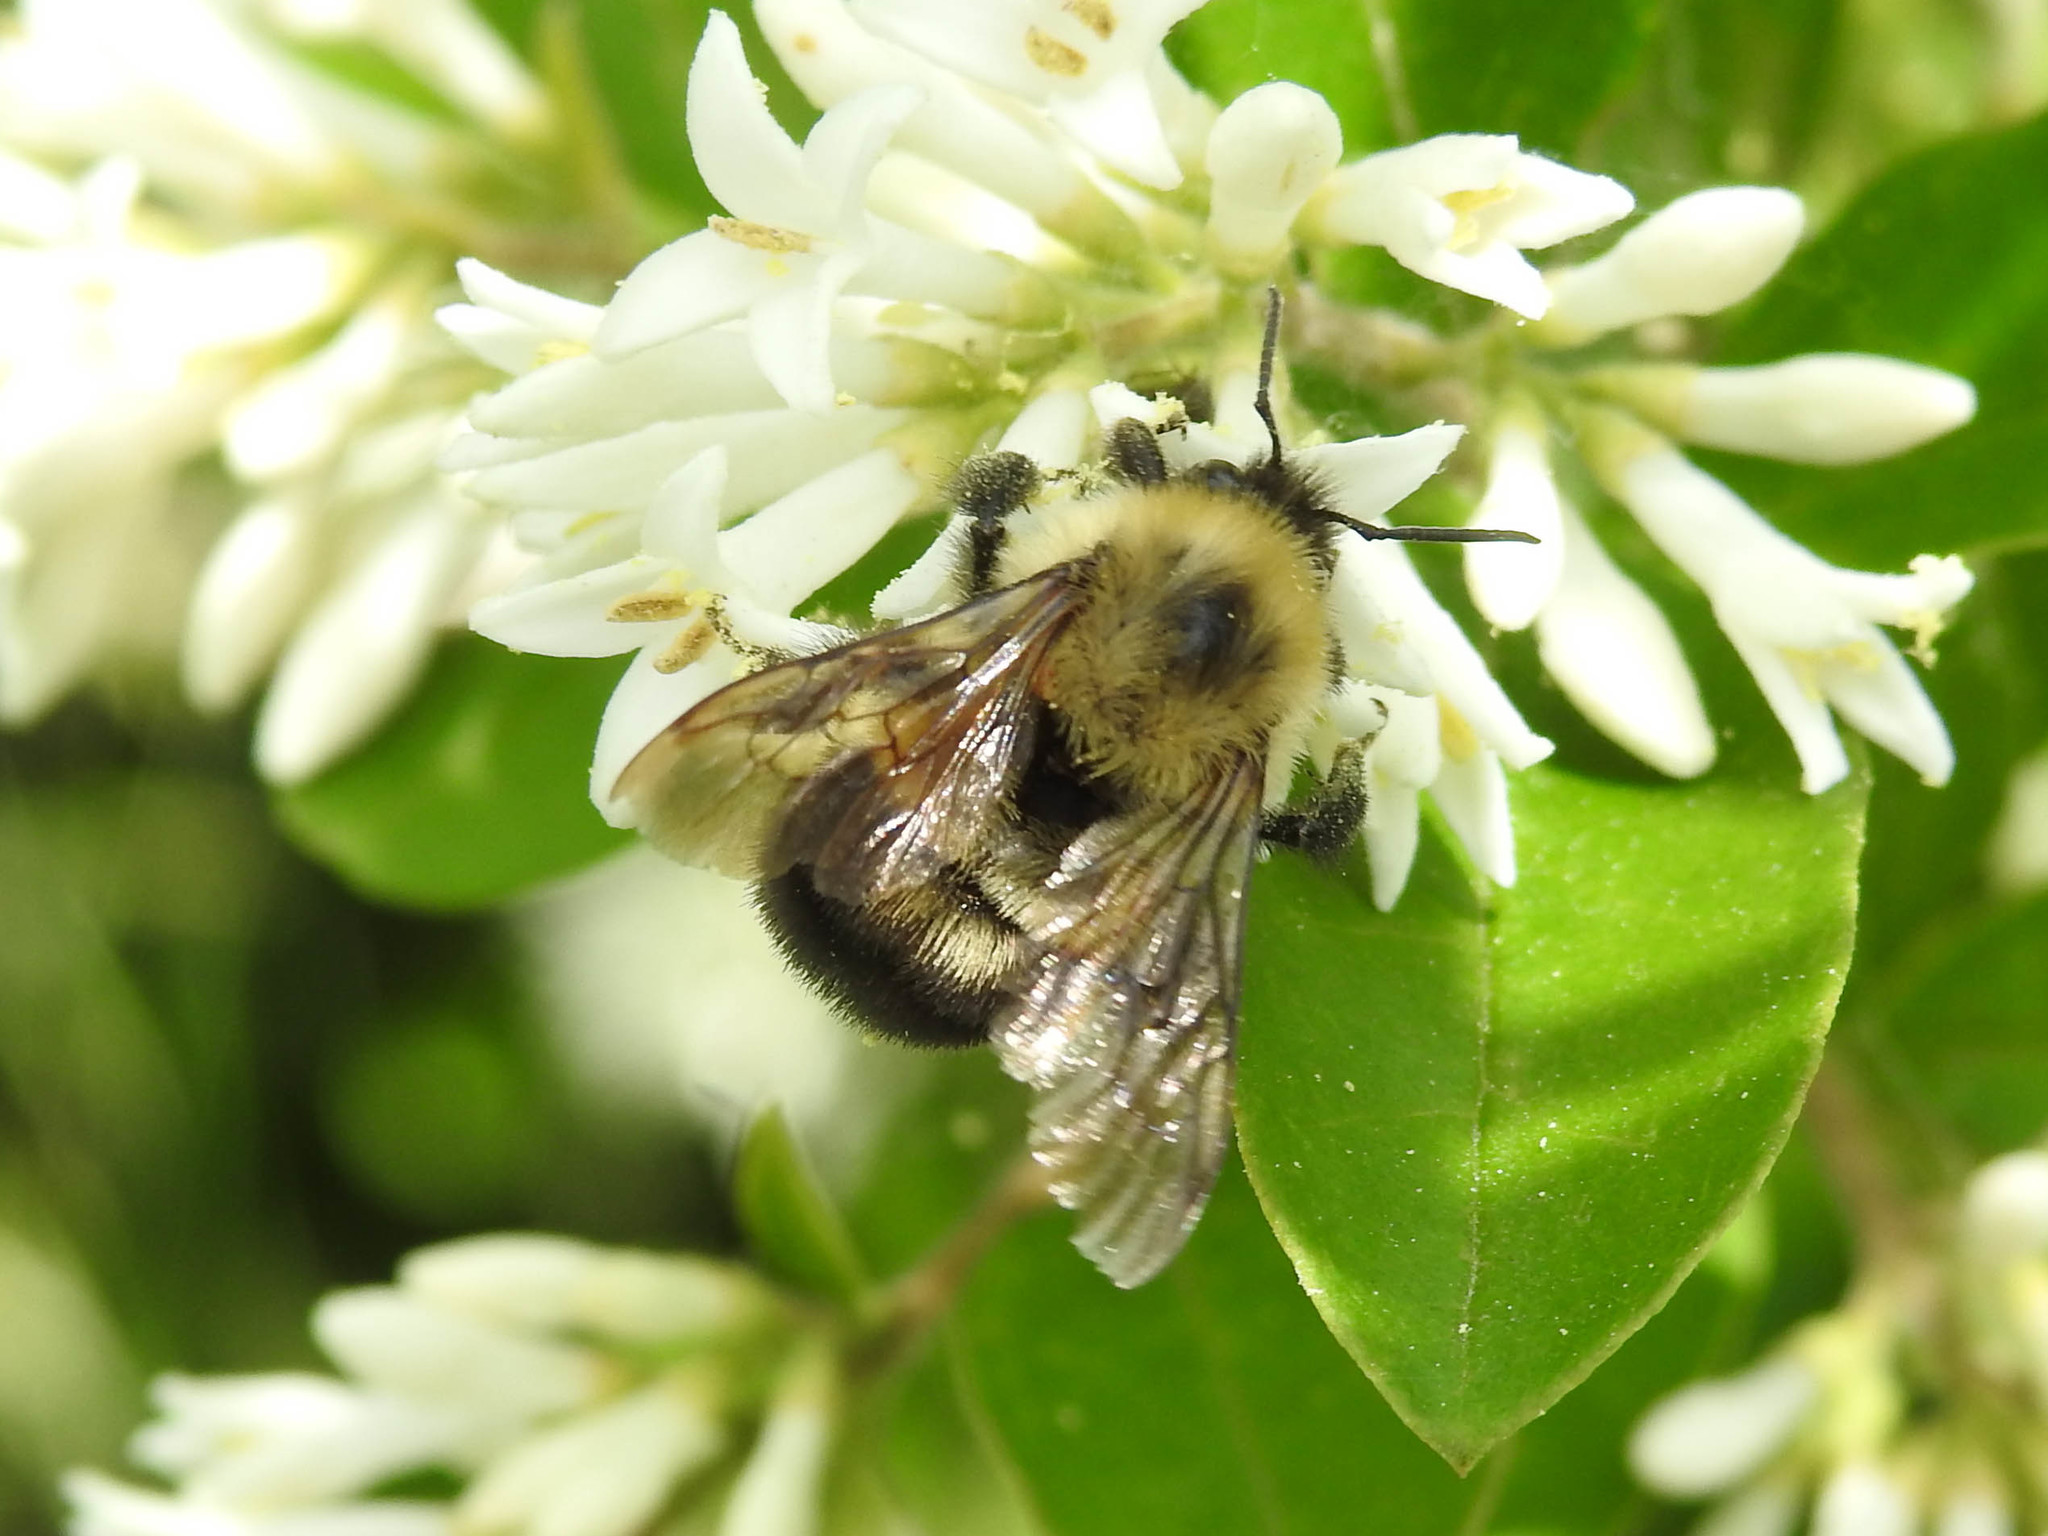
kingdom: Animalia
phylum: Arthropoda
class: Insecta
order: Hymenoptera
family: Apidae
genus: Bombus
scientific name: Bombus bimaculatus
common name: Two-spotted bumble bee
